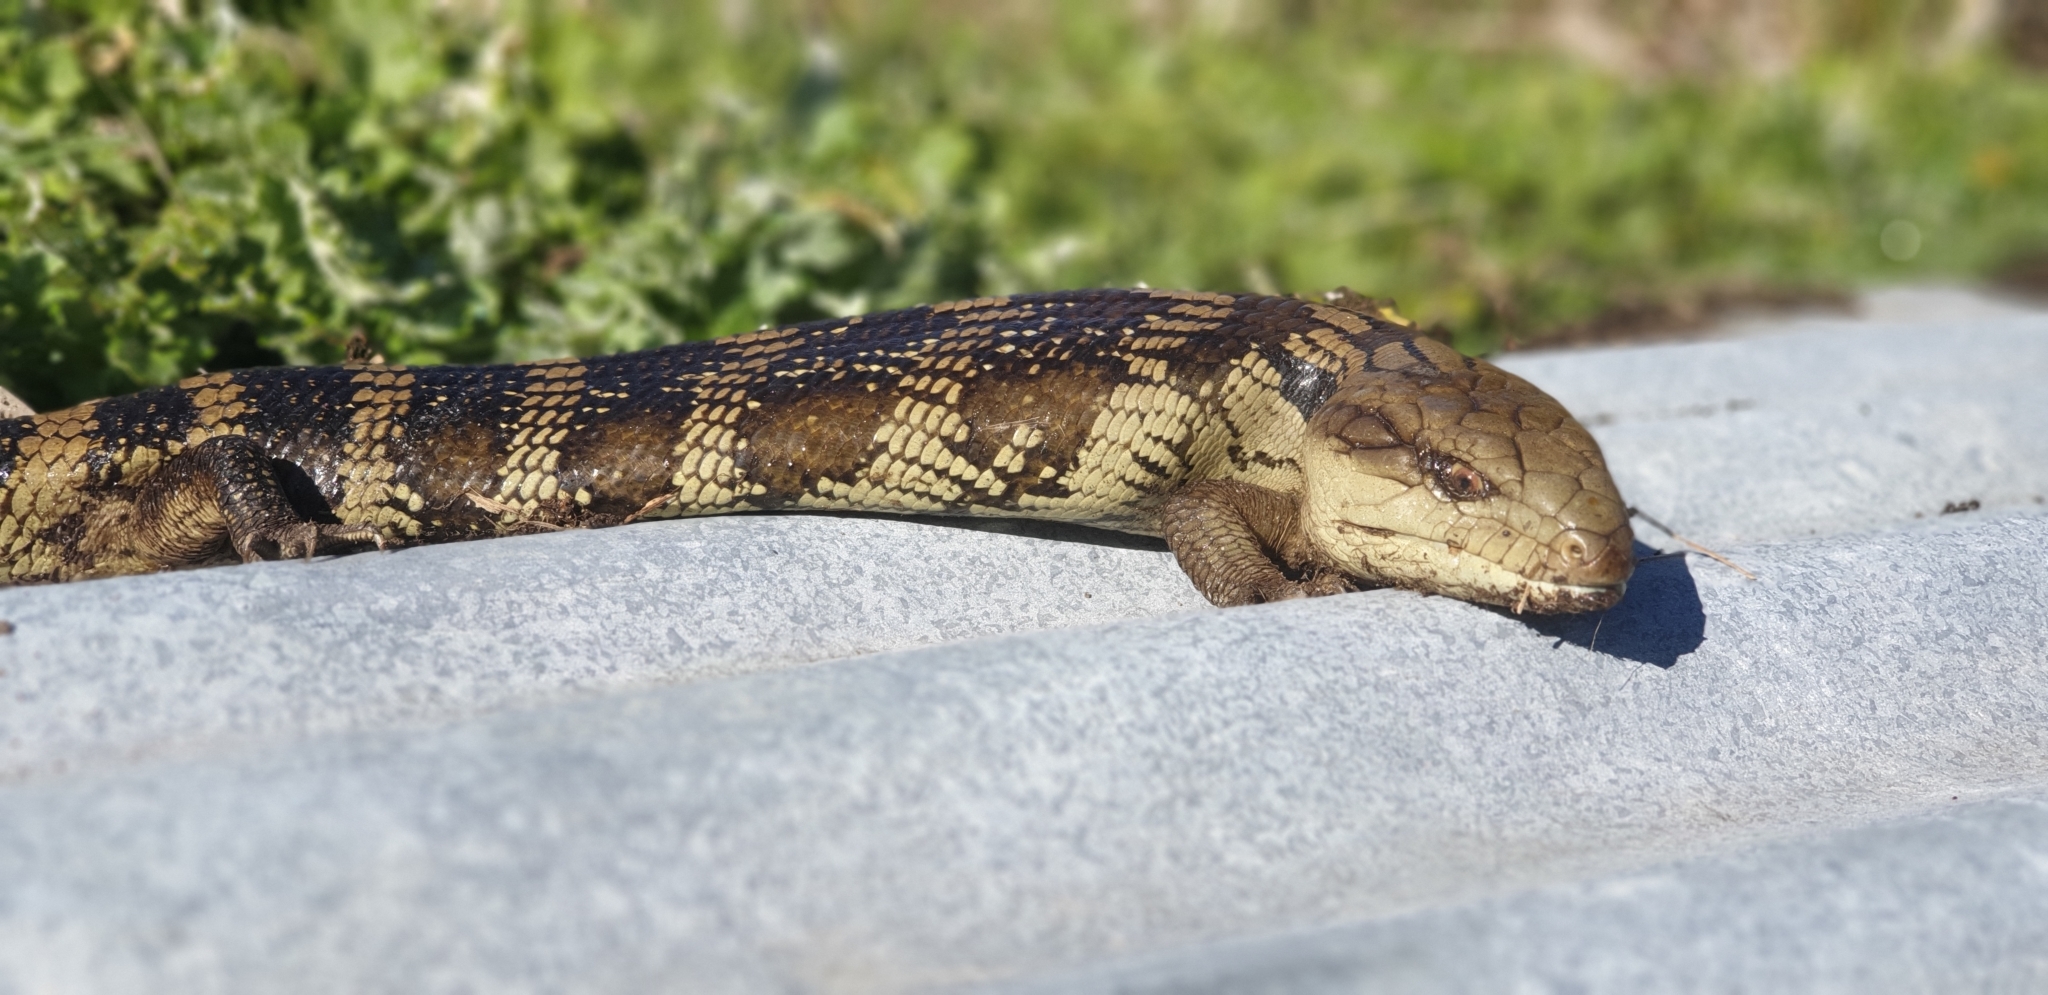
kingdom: Animalia
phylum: Chordata
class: Squamata
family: Scincidae
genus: Tiliqua
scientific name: Tiliqua scincoides
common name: Common bluetongue
